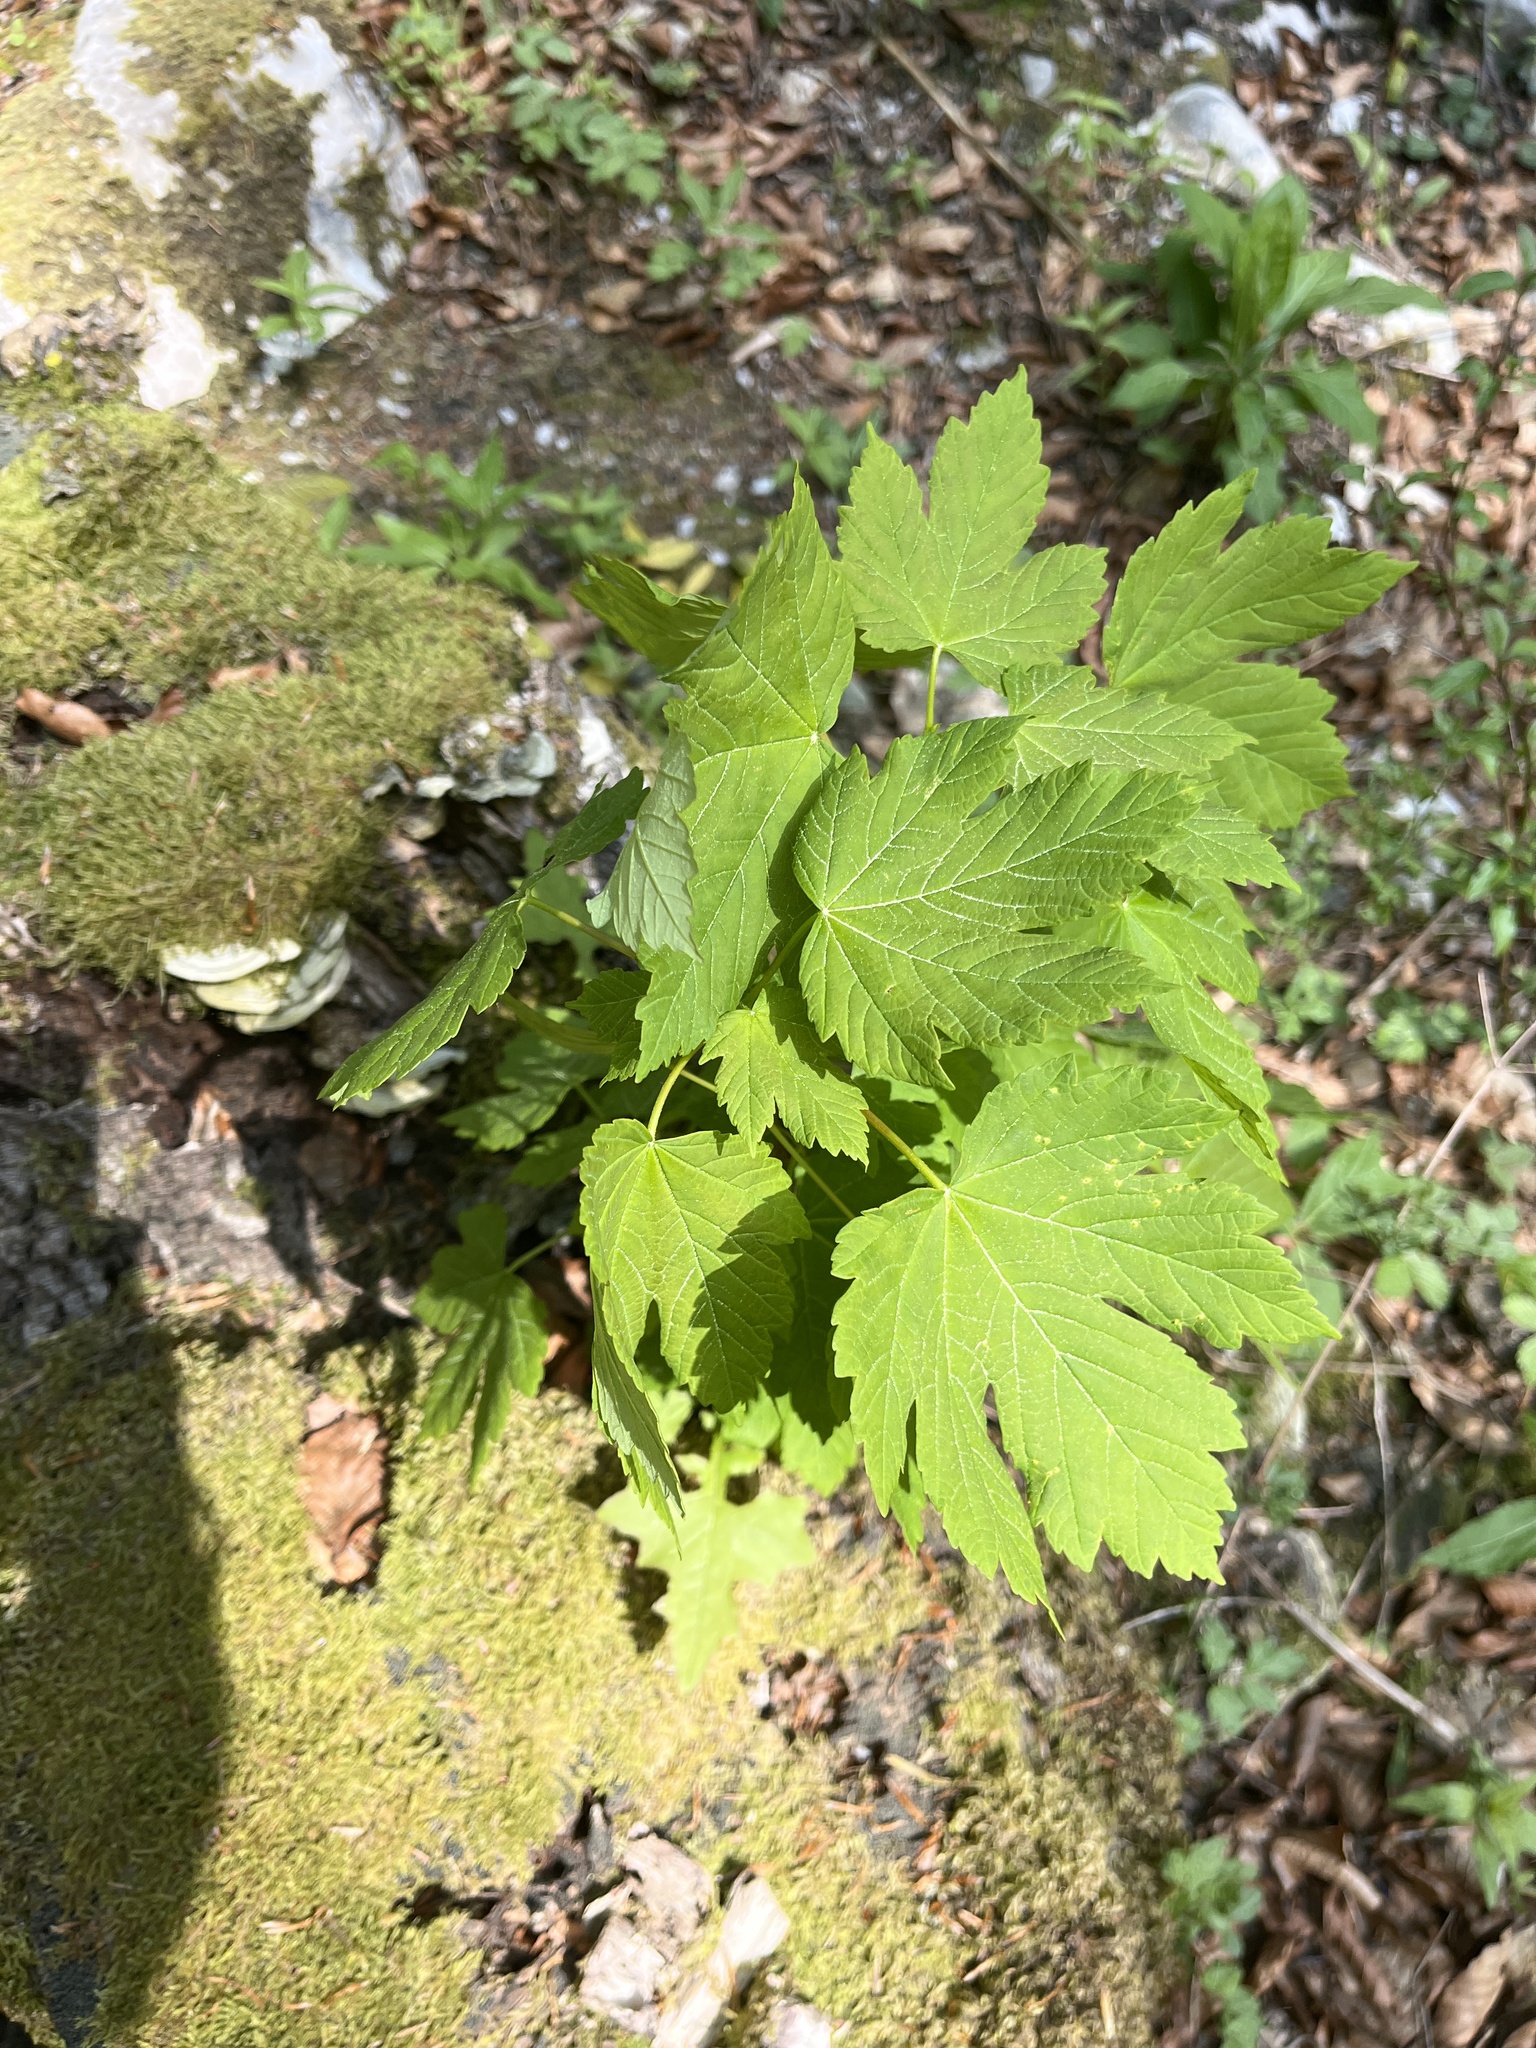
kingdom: Plantae
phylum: Tracheophyta
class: Magnoliopsida
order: Sapindales
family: Sapindaceae
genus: Acer
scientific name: Acer pseudoplatanus
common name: Sycamore
